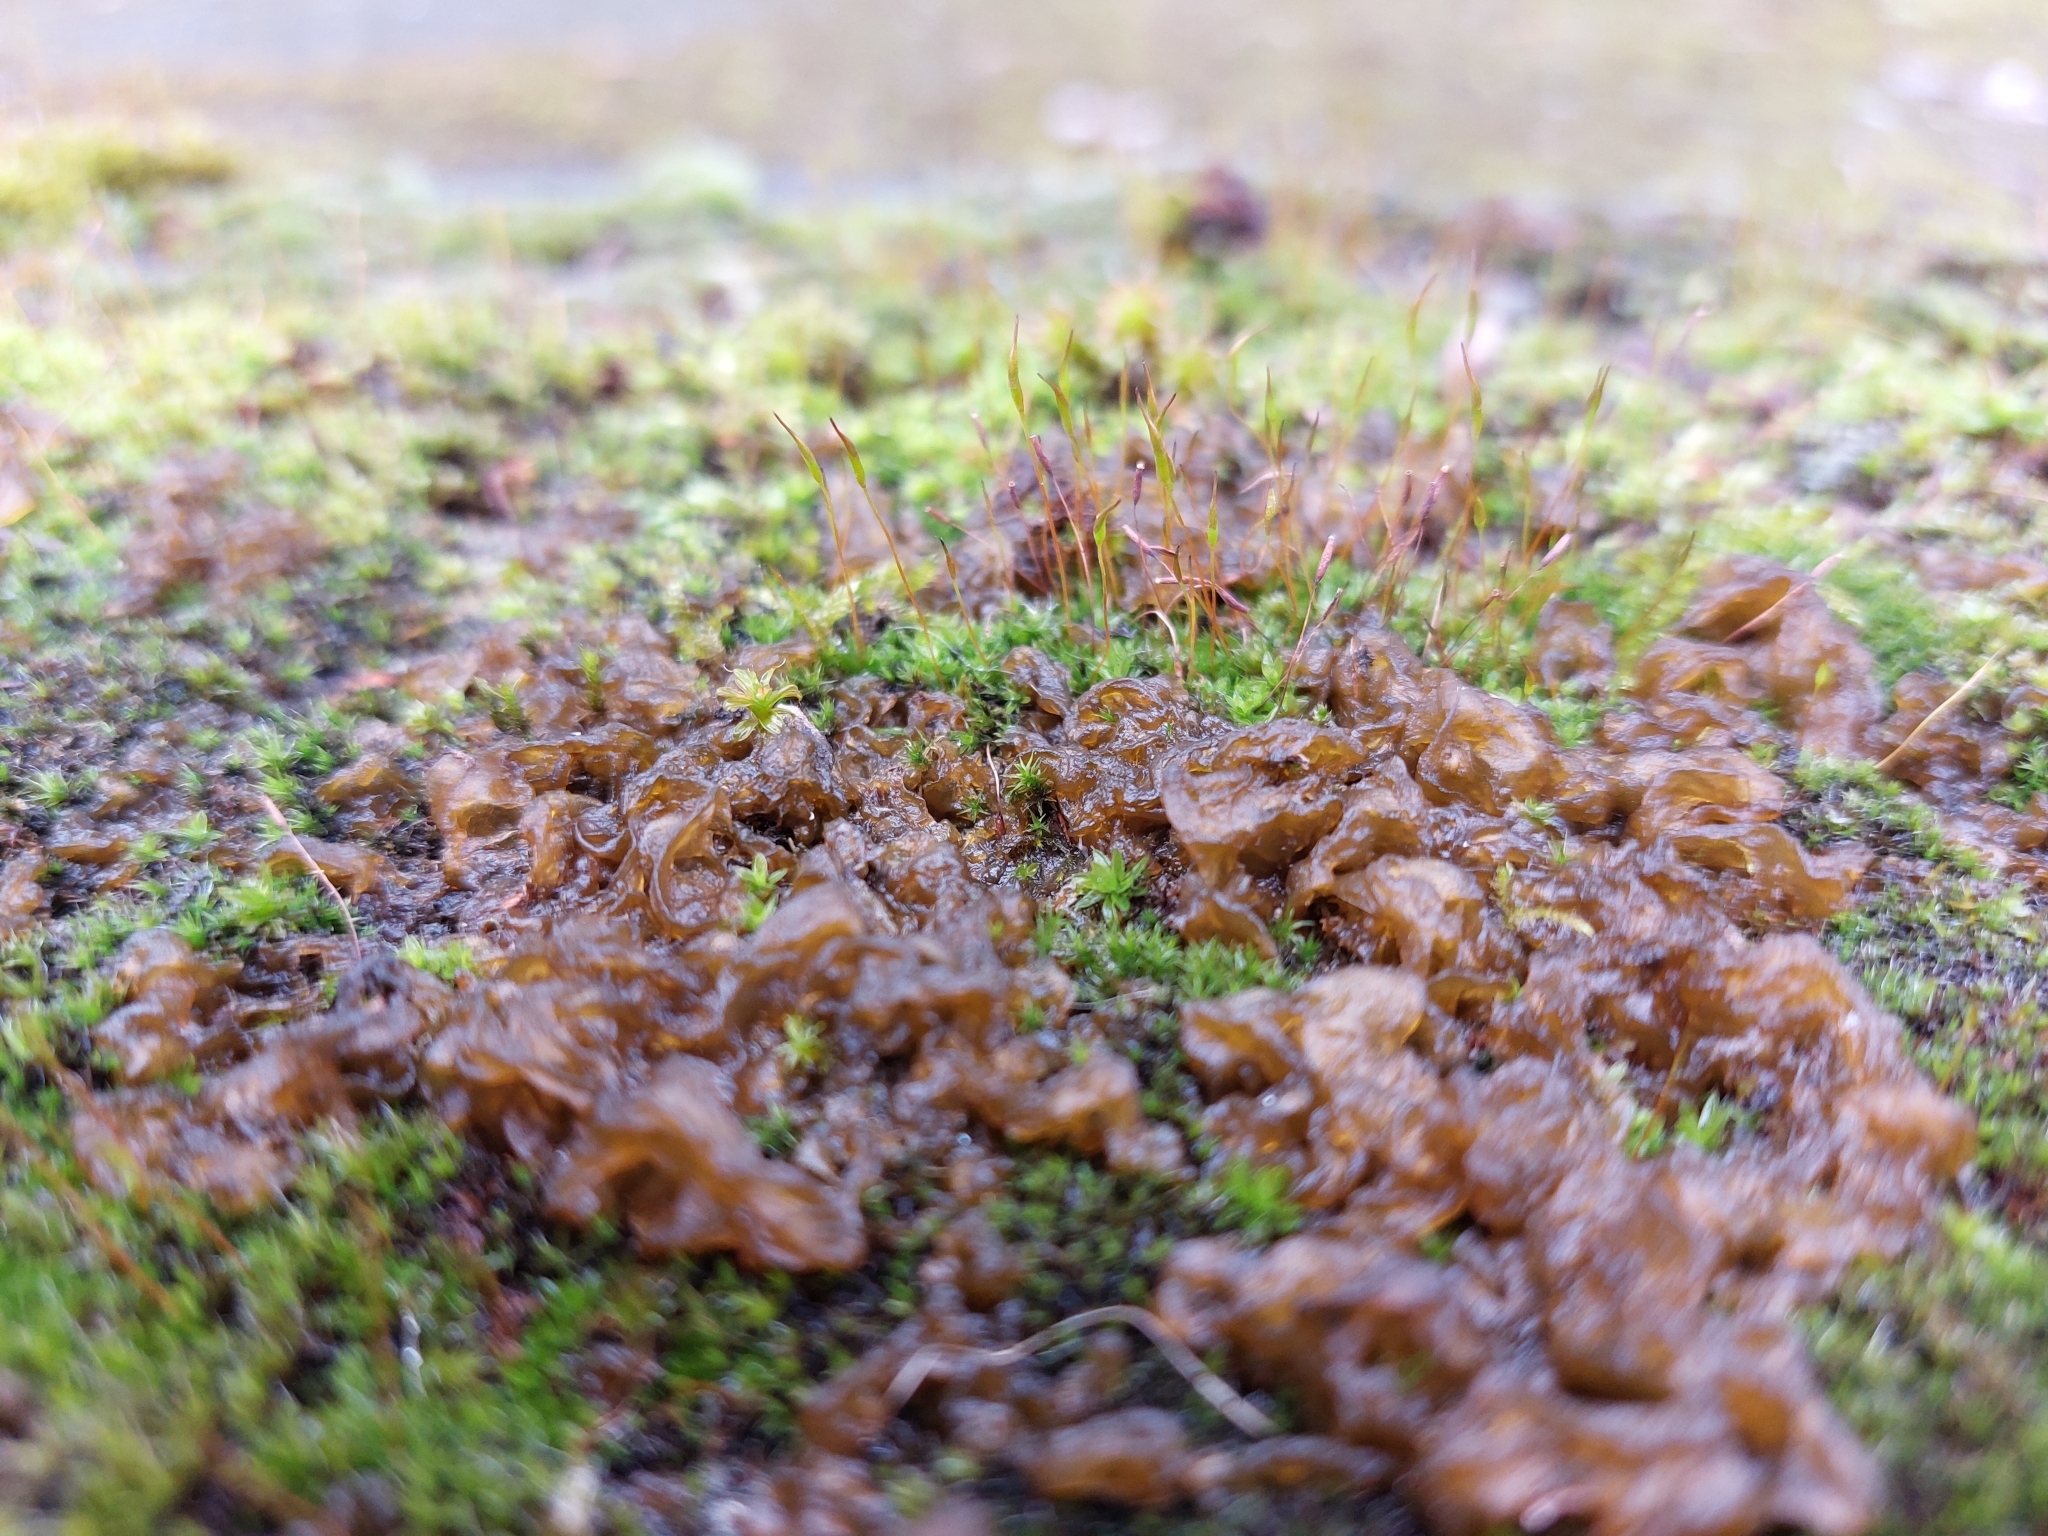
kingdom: Bacteria
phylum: Cyanobacteria
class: Cyanobacteriia
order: Cyanobacteriales
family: Nostocaceae
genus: Nostoc
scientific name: Nostoc commune
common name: Star jelly
